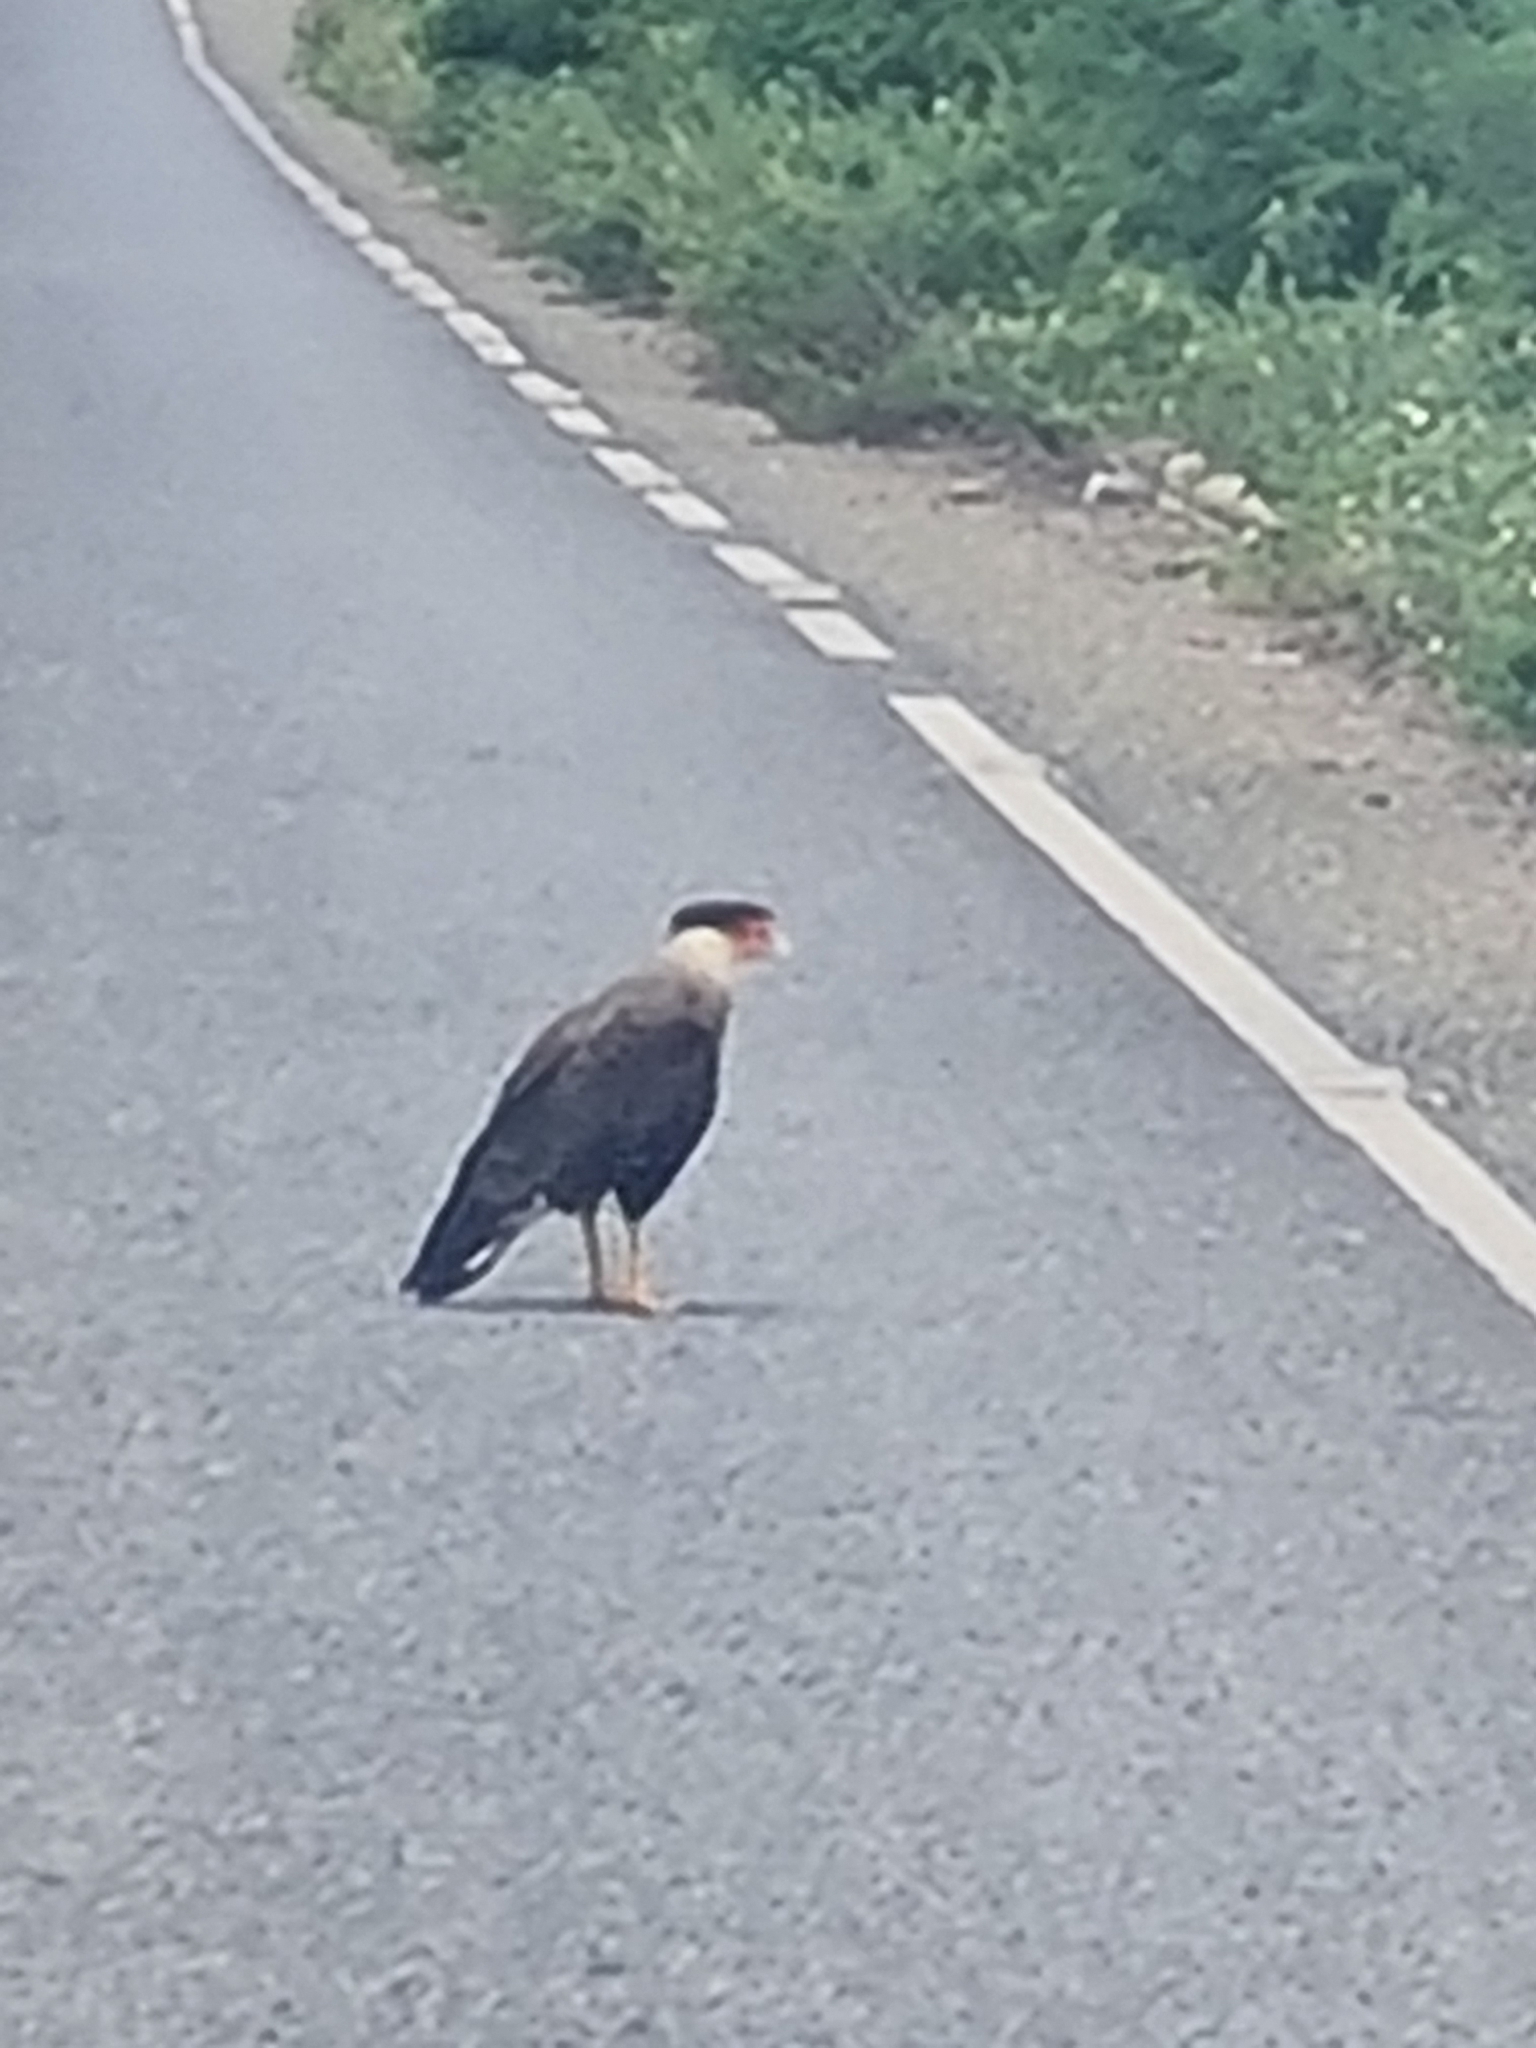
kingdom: Animalia
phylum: Chordata
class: Aves
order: Falconiformes
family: Falconidae
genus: Caracara
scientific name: Caracara plancus
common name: Southern caracara
